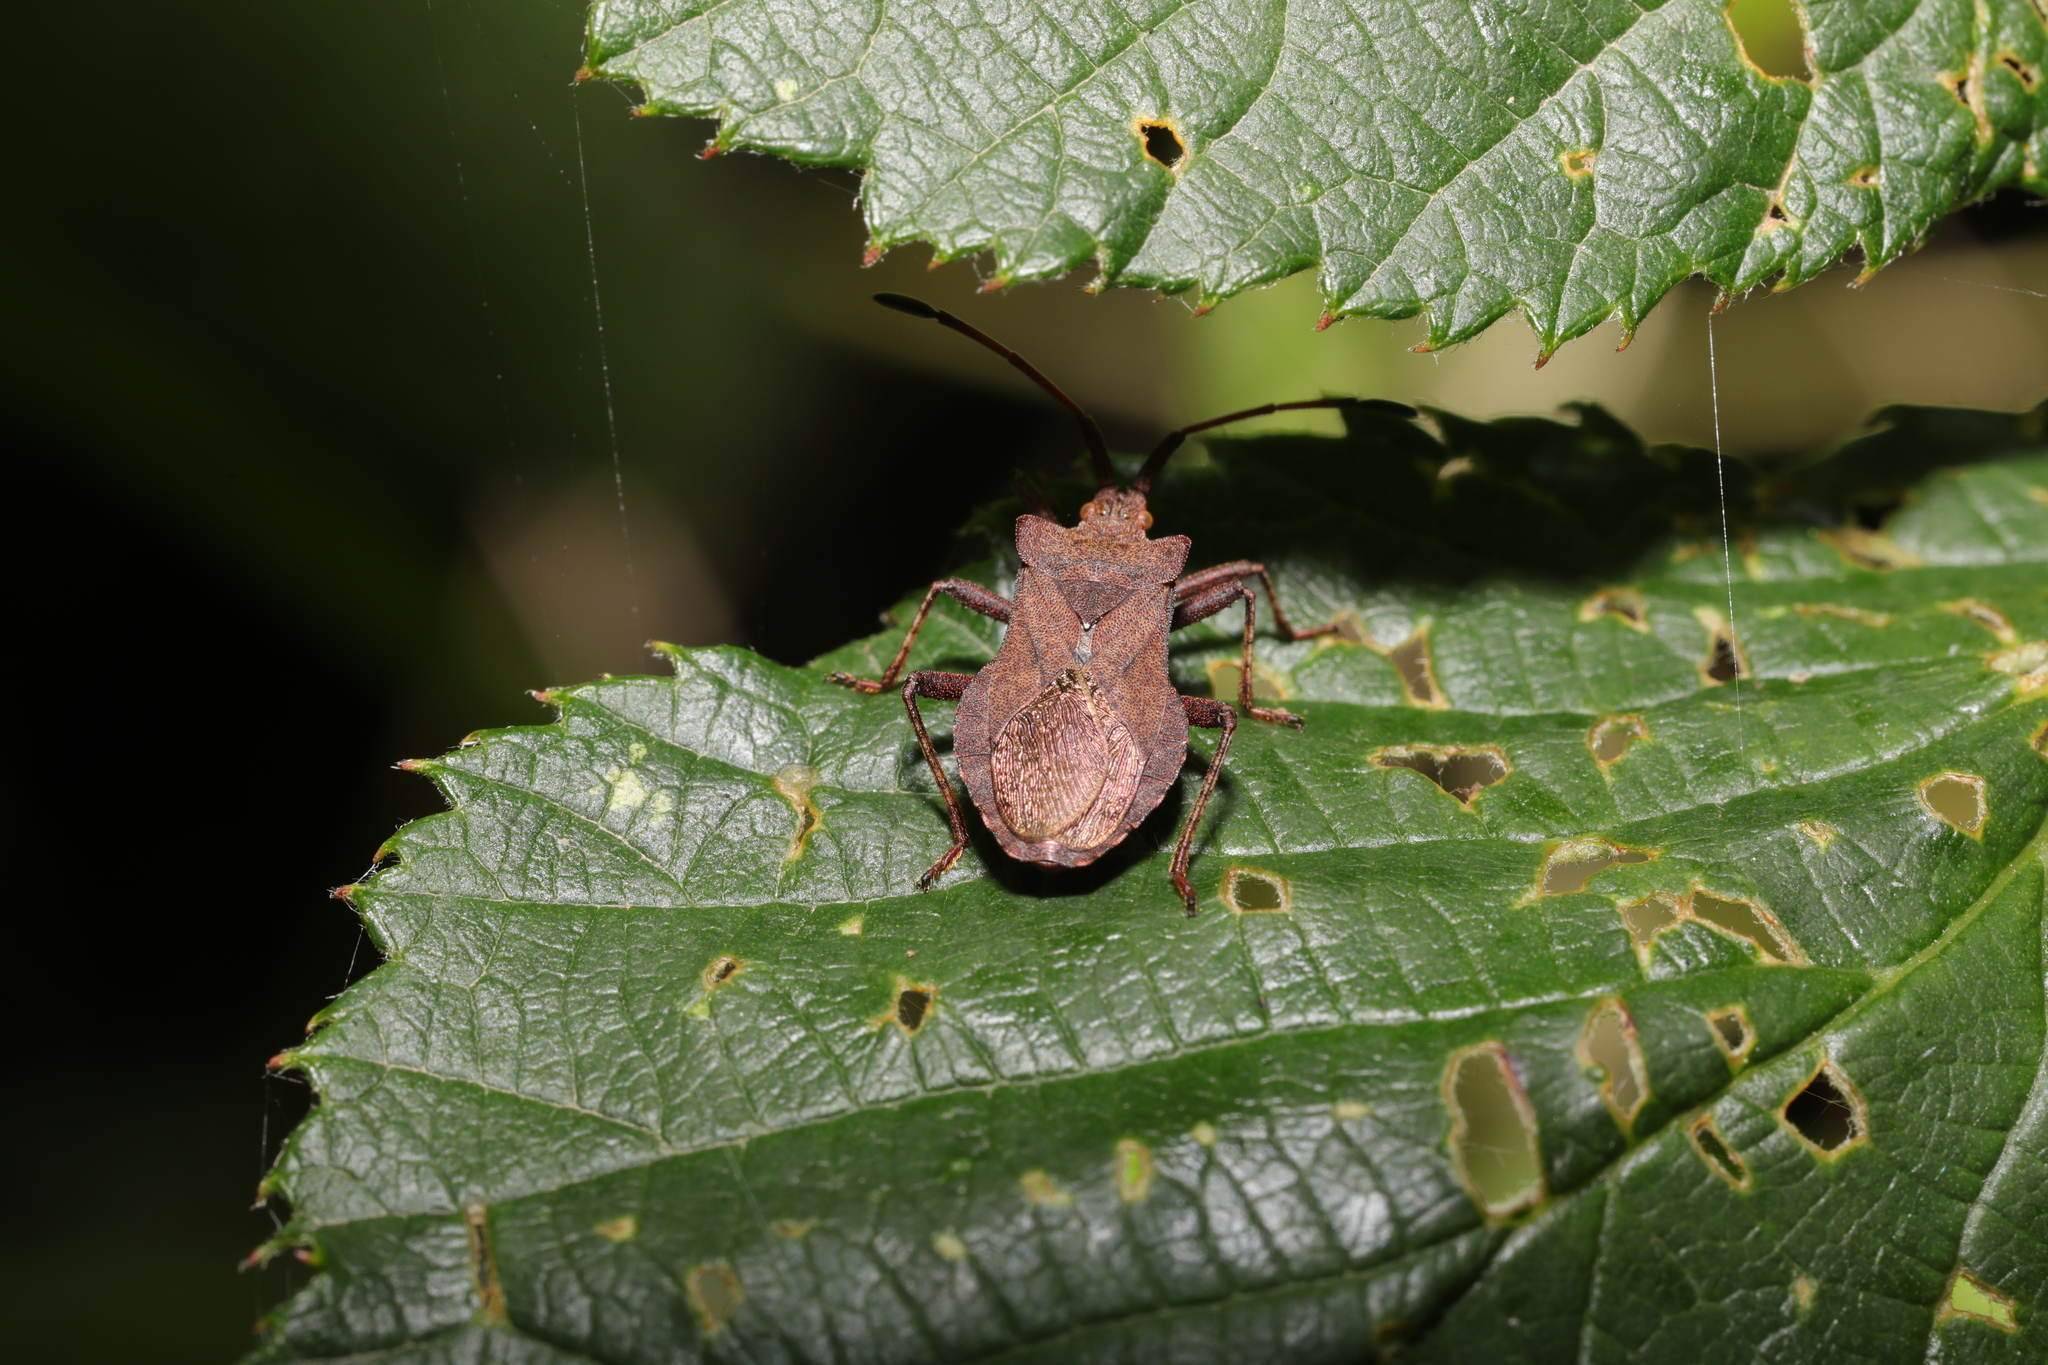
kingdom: Animalia
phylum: Arthropoda
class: Insecta
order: Hemiptera
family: Coreidae
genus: Coreus
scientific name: Coreus marginatus
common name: Dock bug
